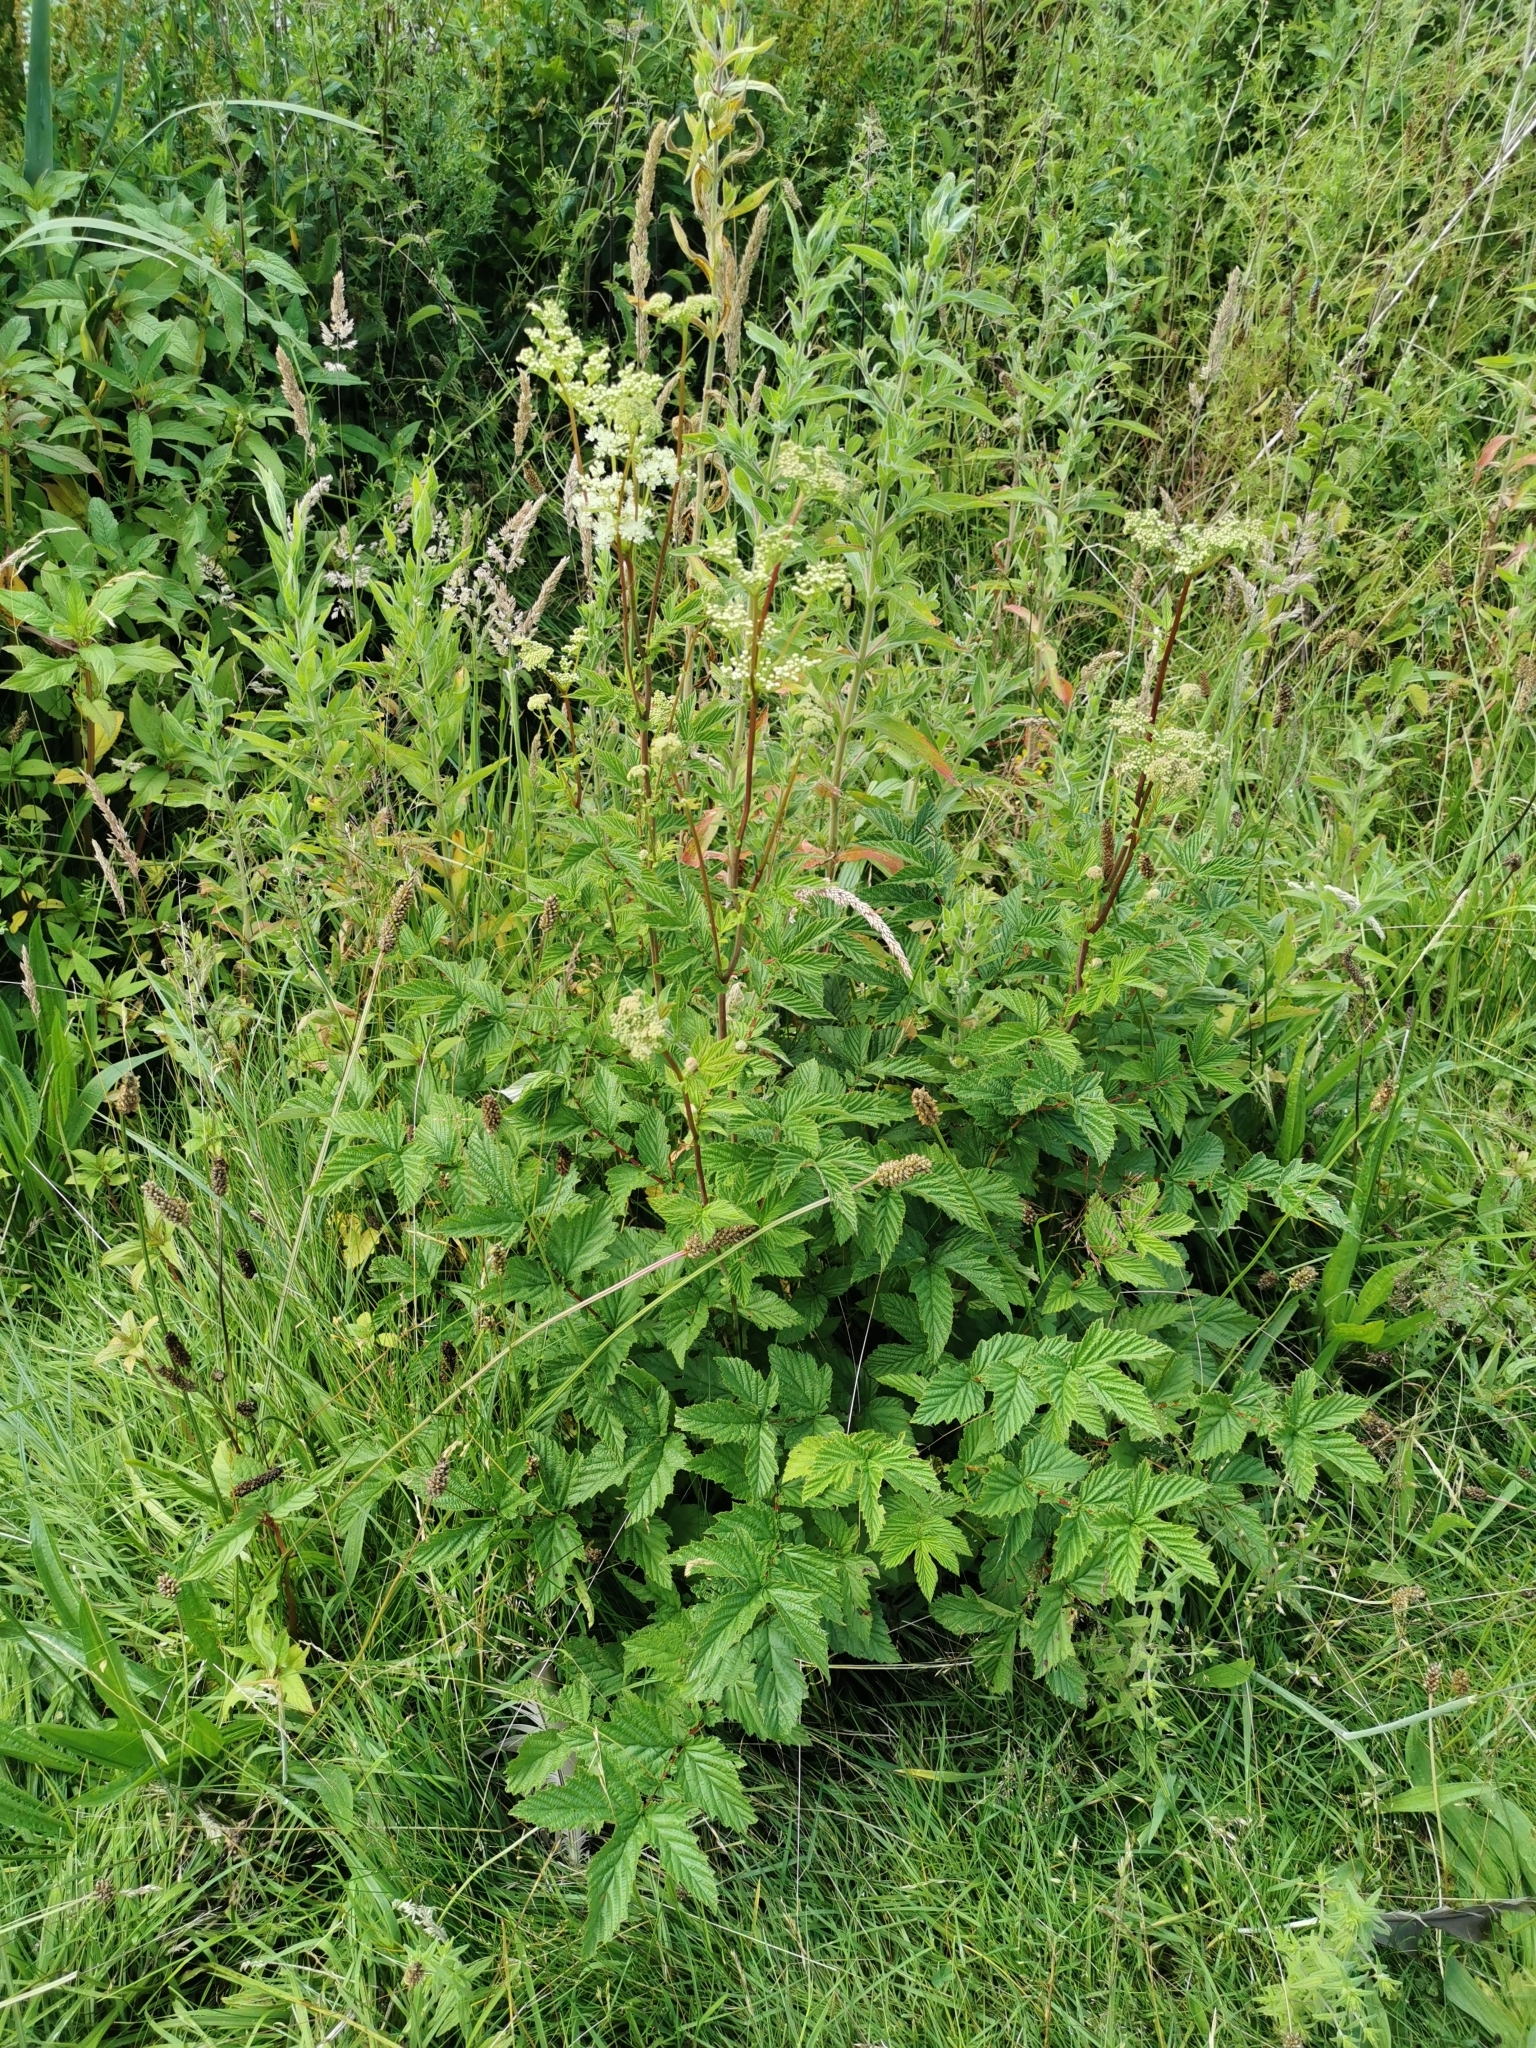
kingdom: Plantae
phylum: Tracheophyta
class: Magnoliopsida
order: Rosales
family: Rosaceae
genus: Filipendula
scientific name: Filipendula ulmaria
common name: Meadowsweet
